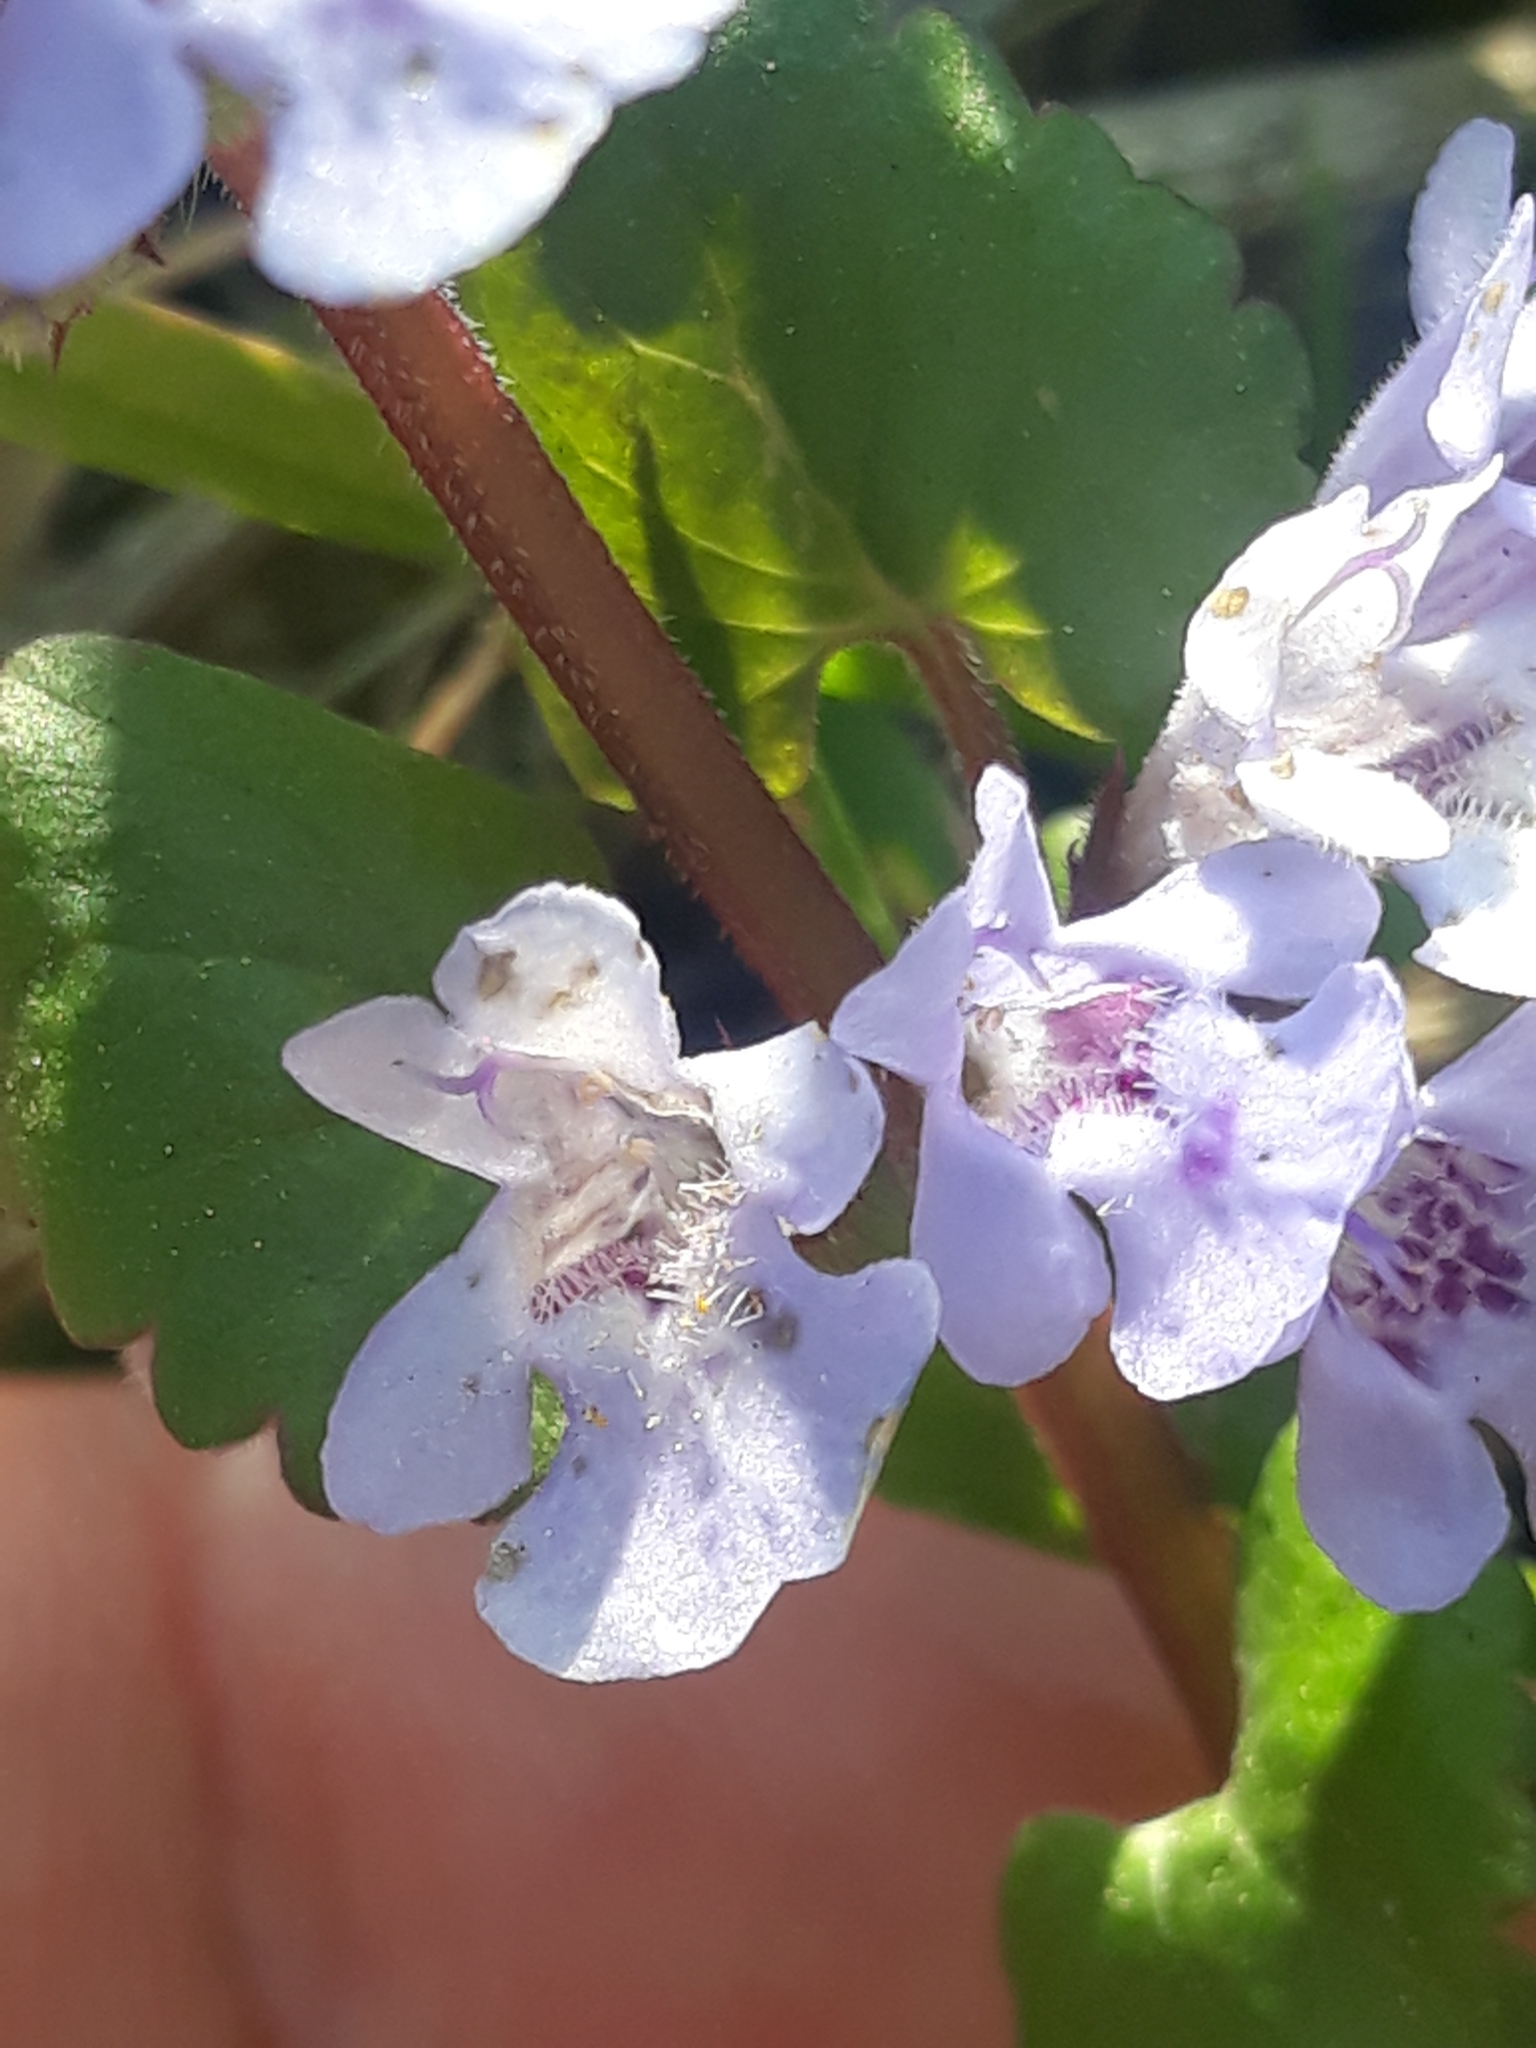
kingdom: Plantae
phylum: Tracheophyta
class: Magnoliopsida
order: Lamiales
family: Lamiaceae
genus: Glechoma
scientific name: Glechoma hederacea
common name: Ground ivy
